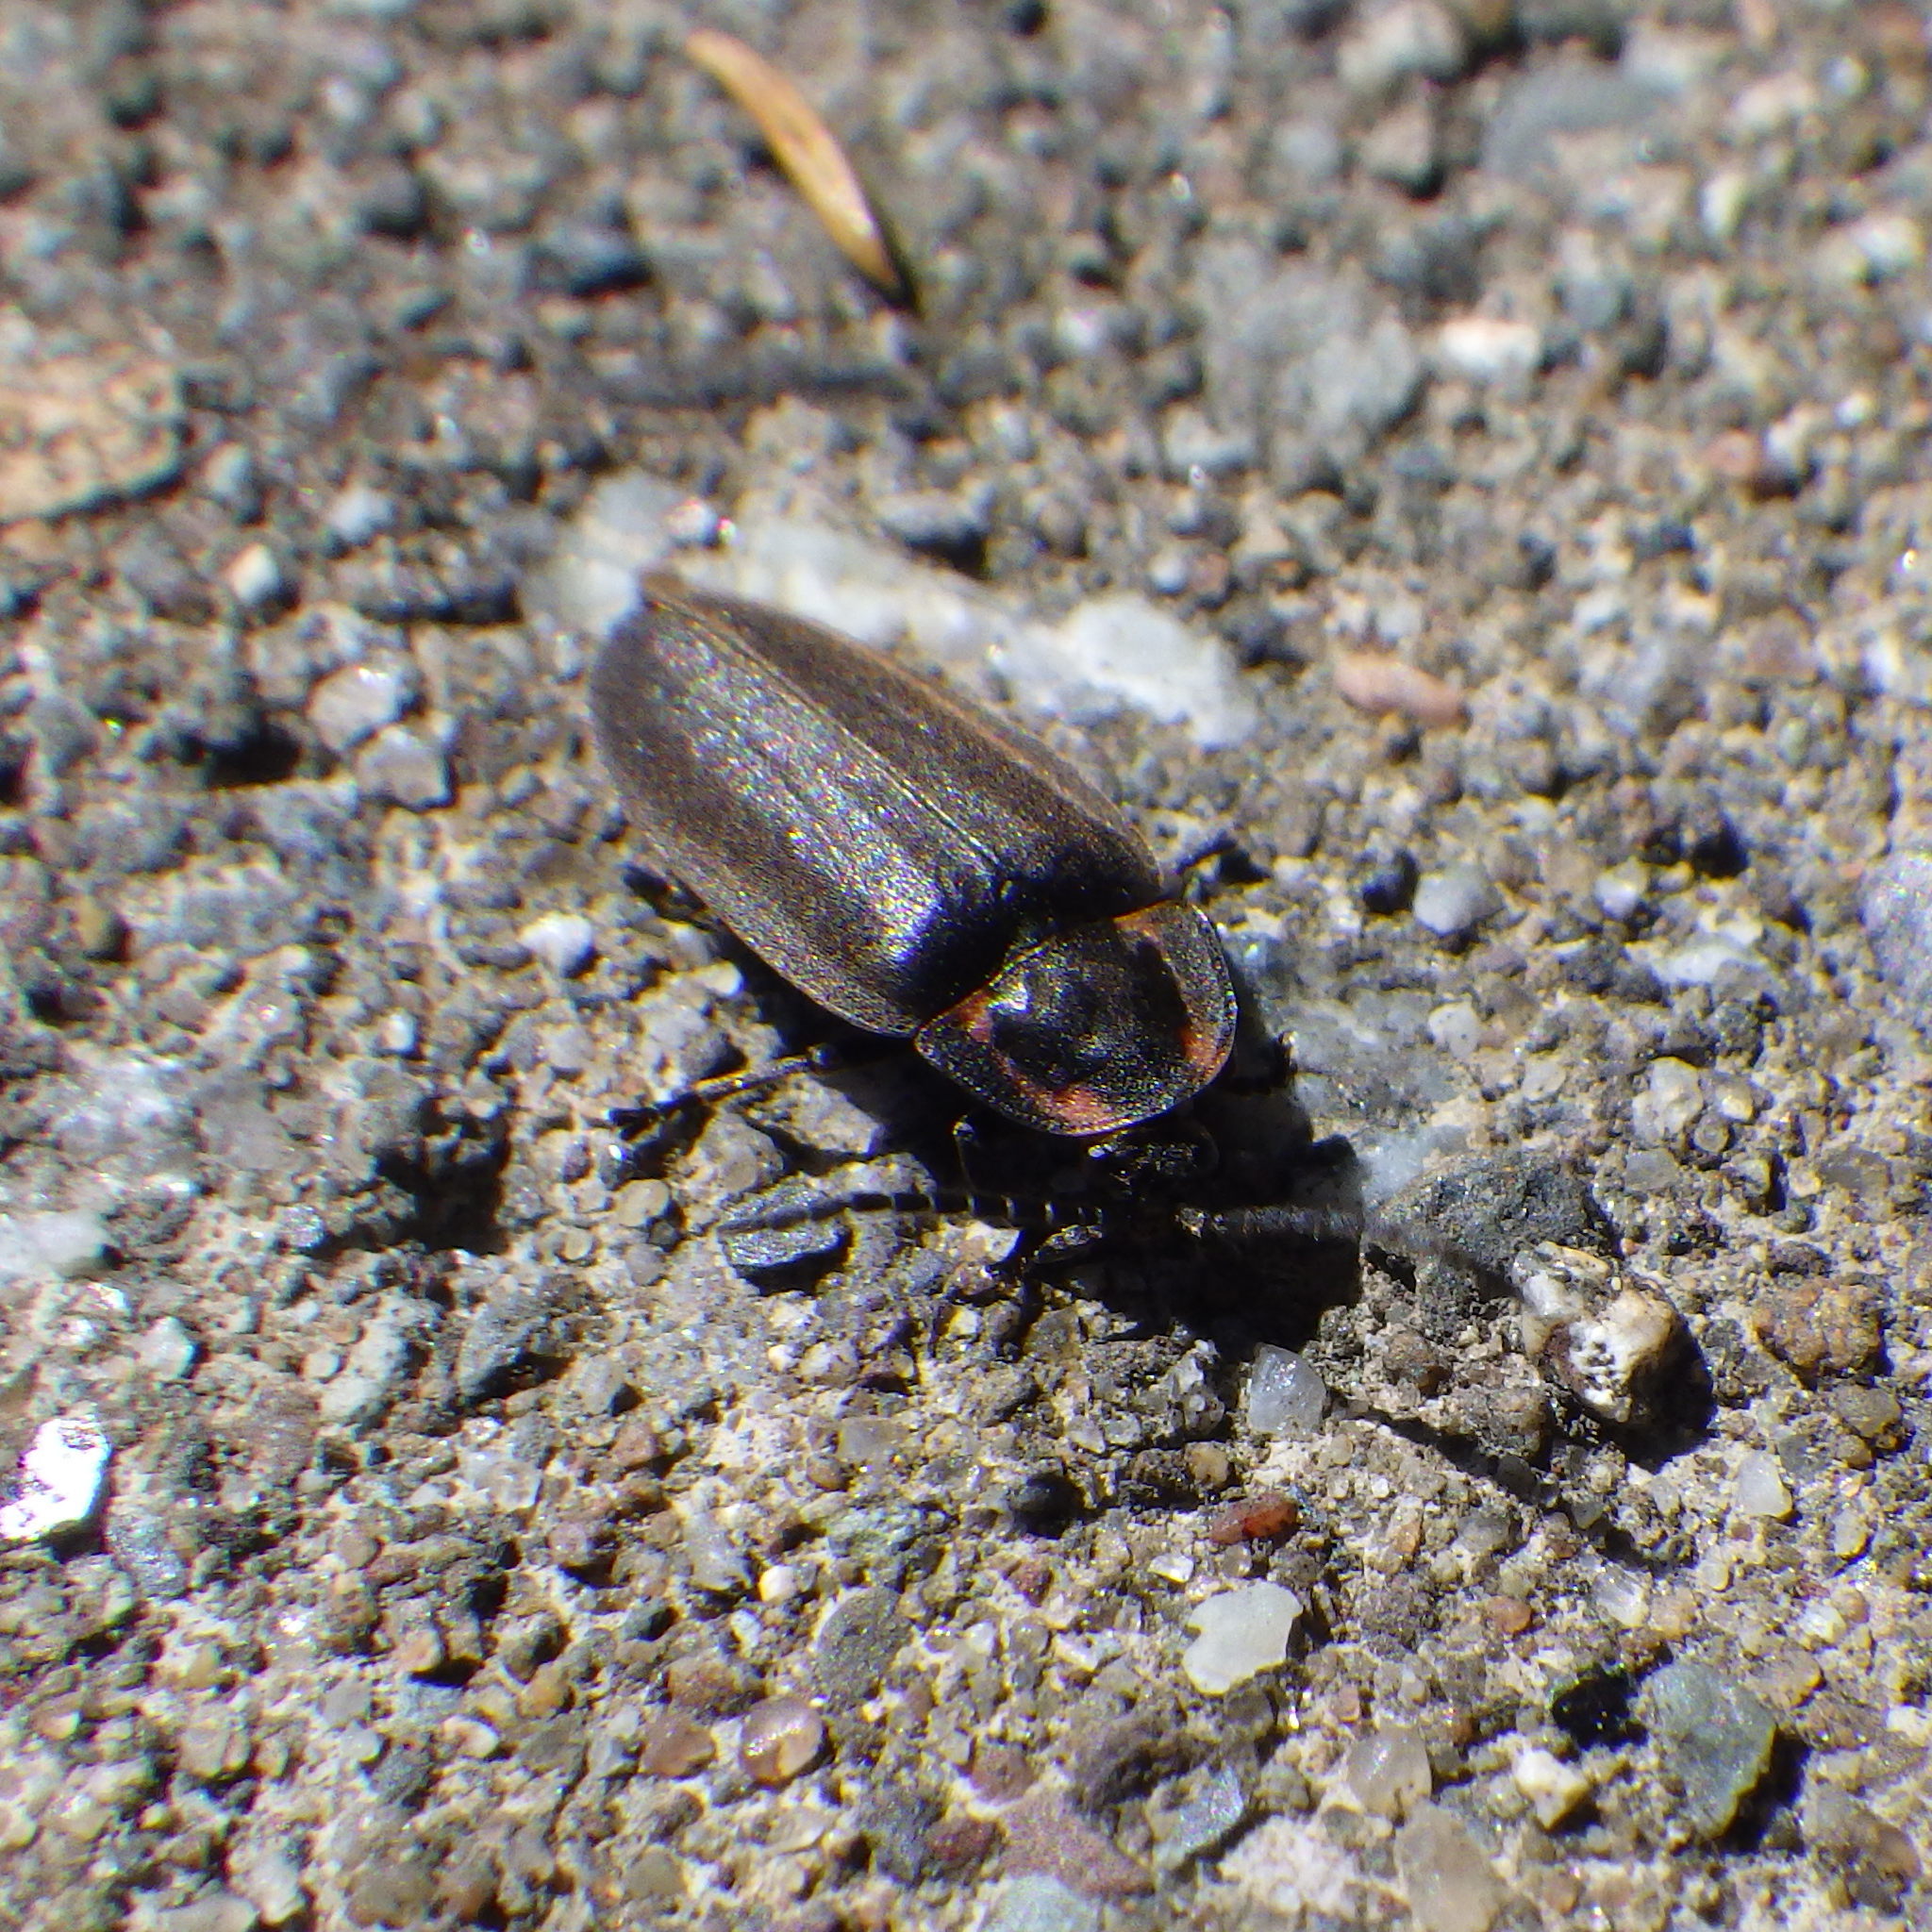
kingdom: Animalia
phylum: Arthropoda
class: Insecta
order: Coleoptera
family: Lampyridae
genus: Photinus
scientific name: Photinus corrusca
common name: Winter firefly
